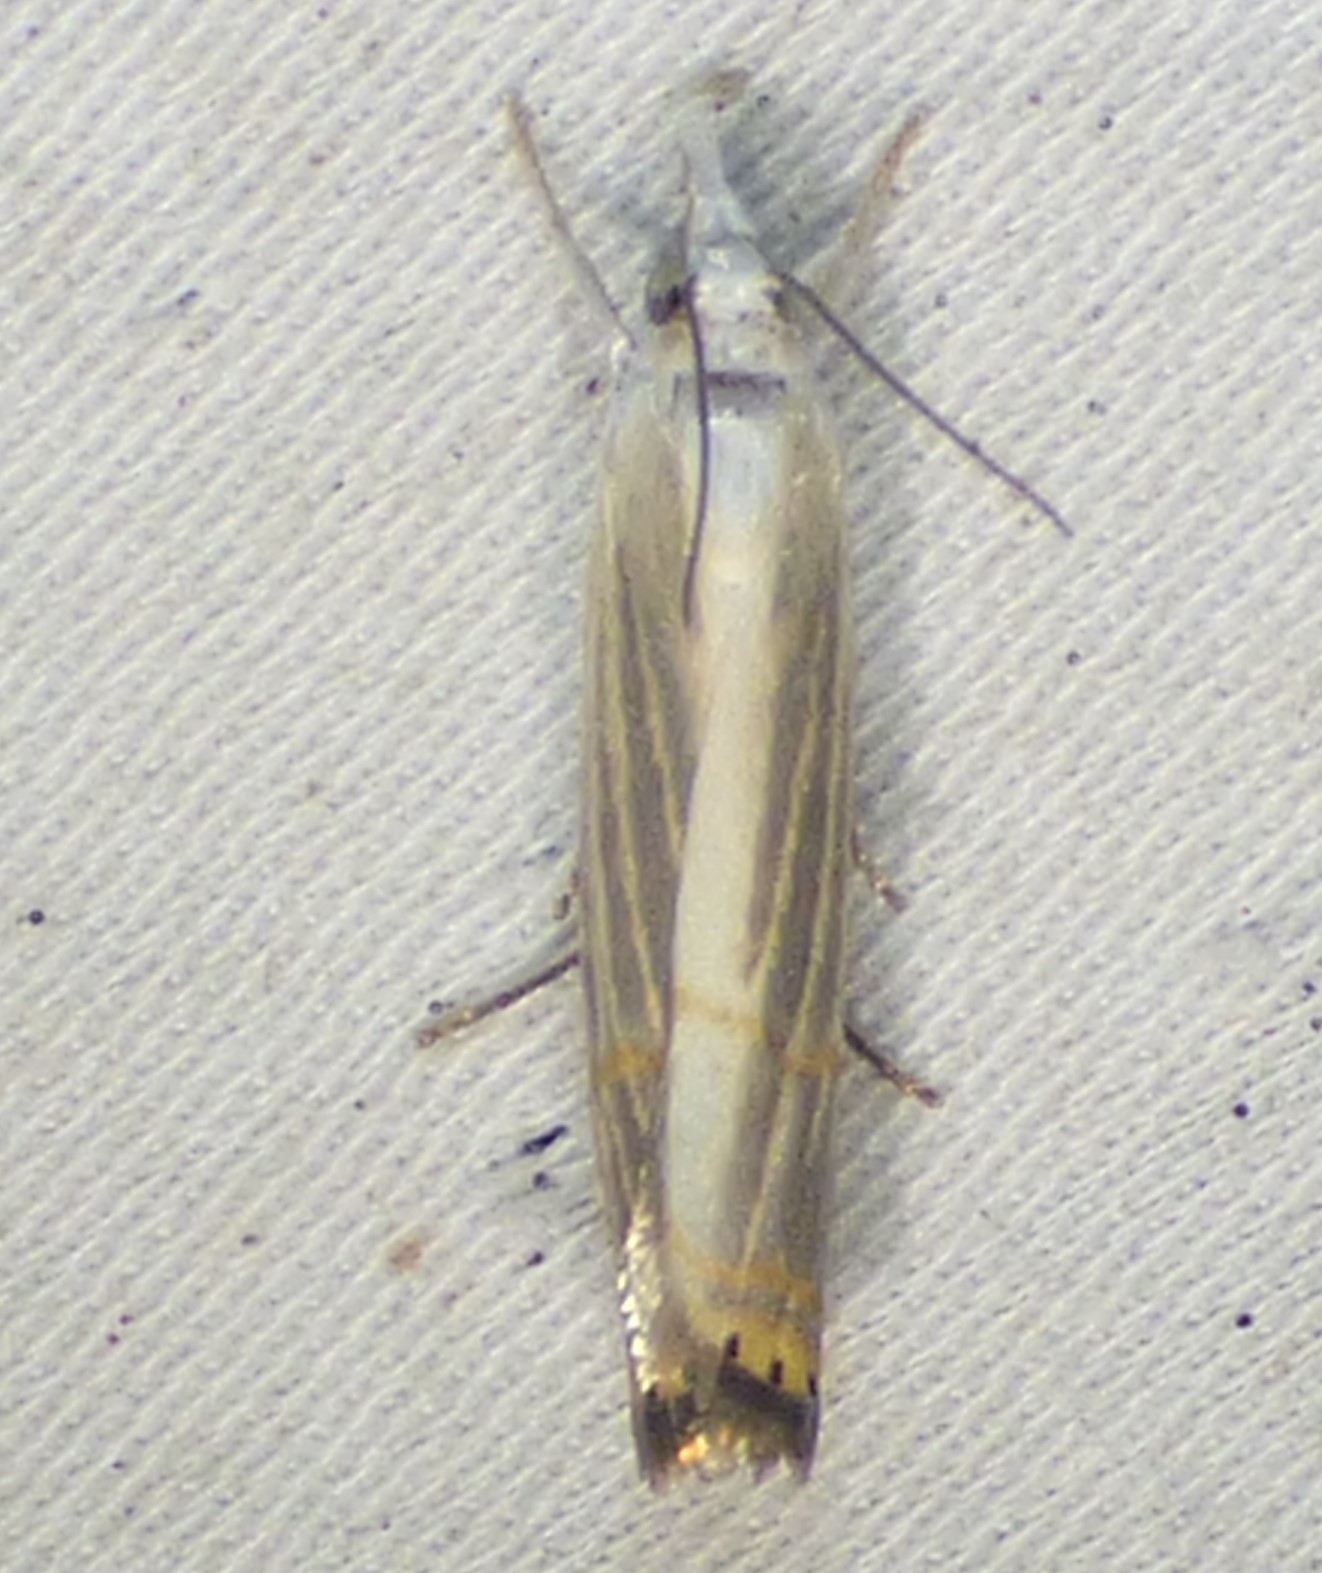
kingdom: Animalia
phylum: Arthropoda
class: Insecta
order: Lepidoptera
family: Crambidae
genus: Parapediasia
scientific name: Parapediasia decorellus
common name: Graceful grass-veneer
